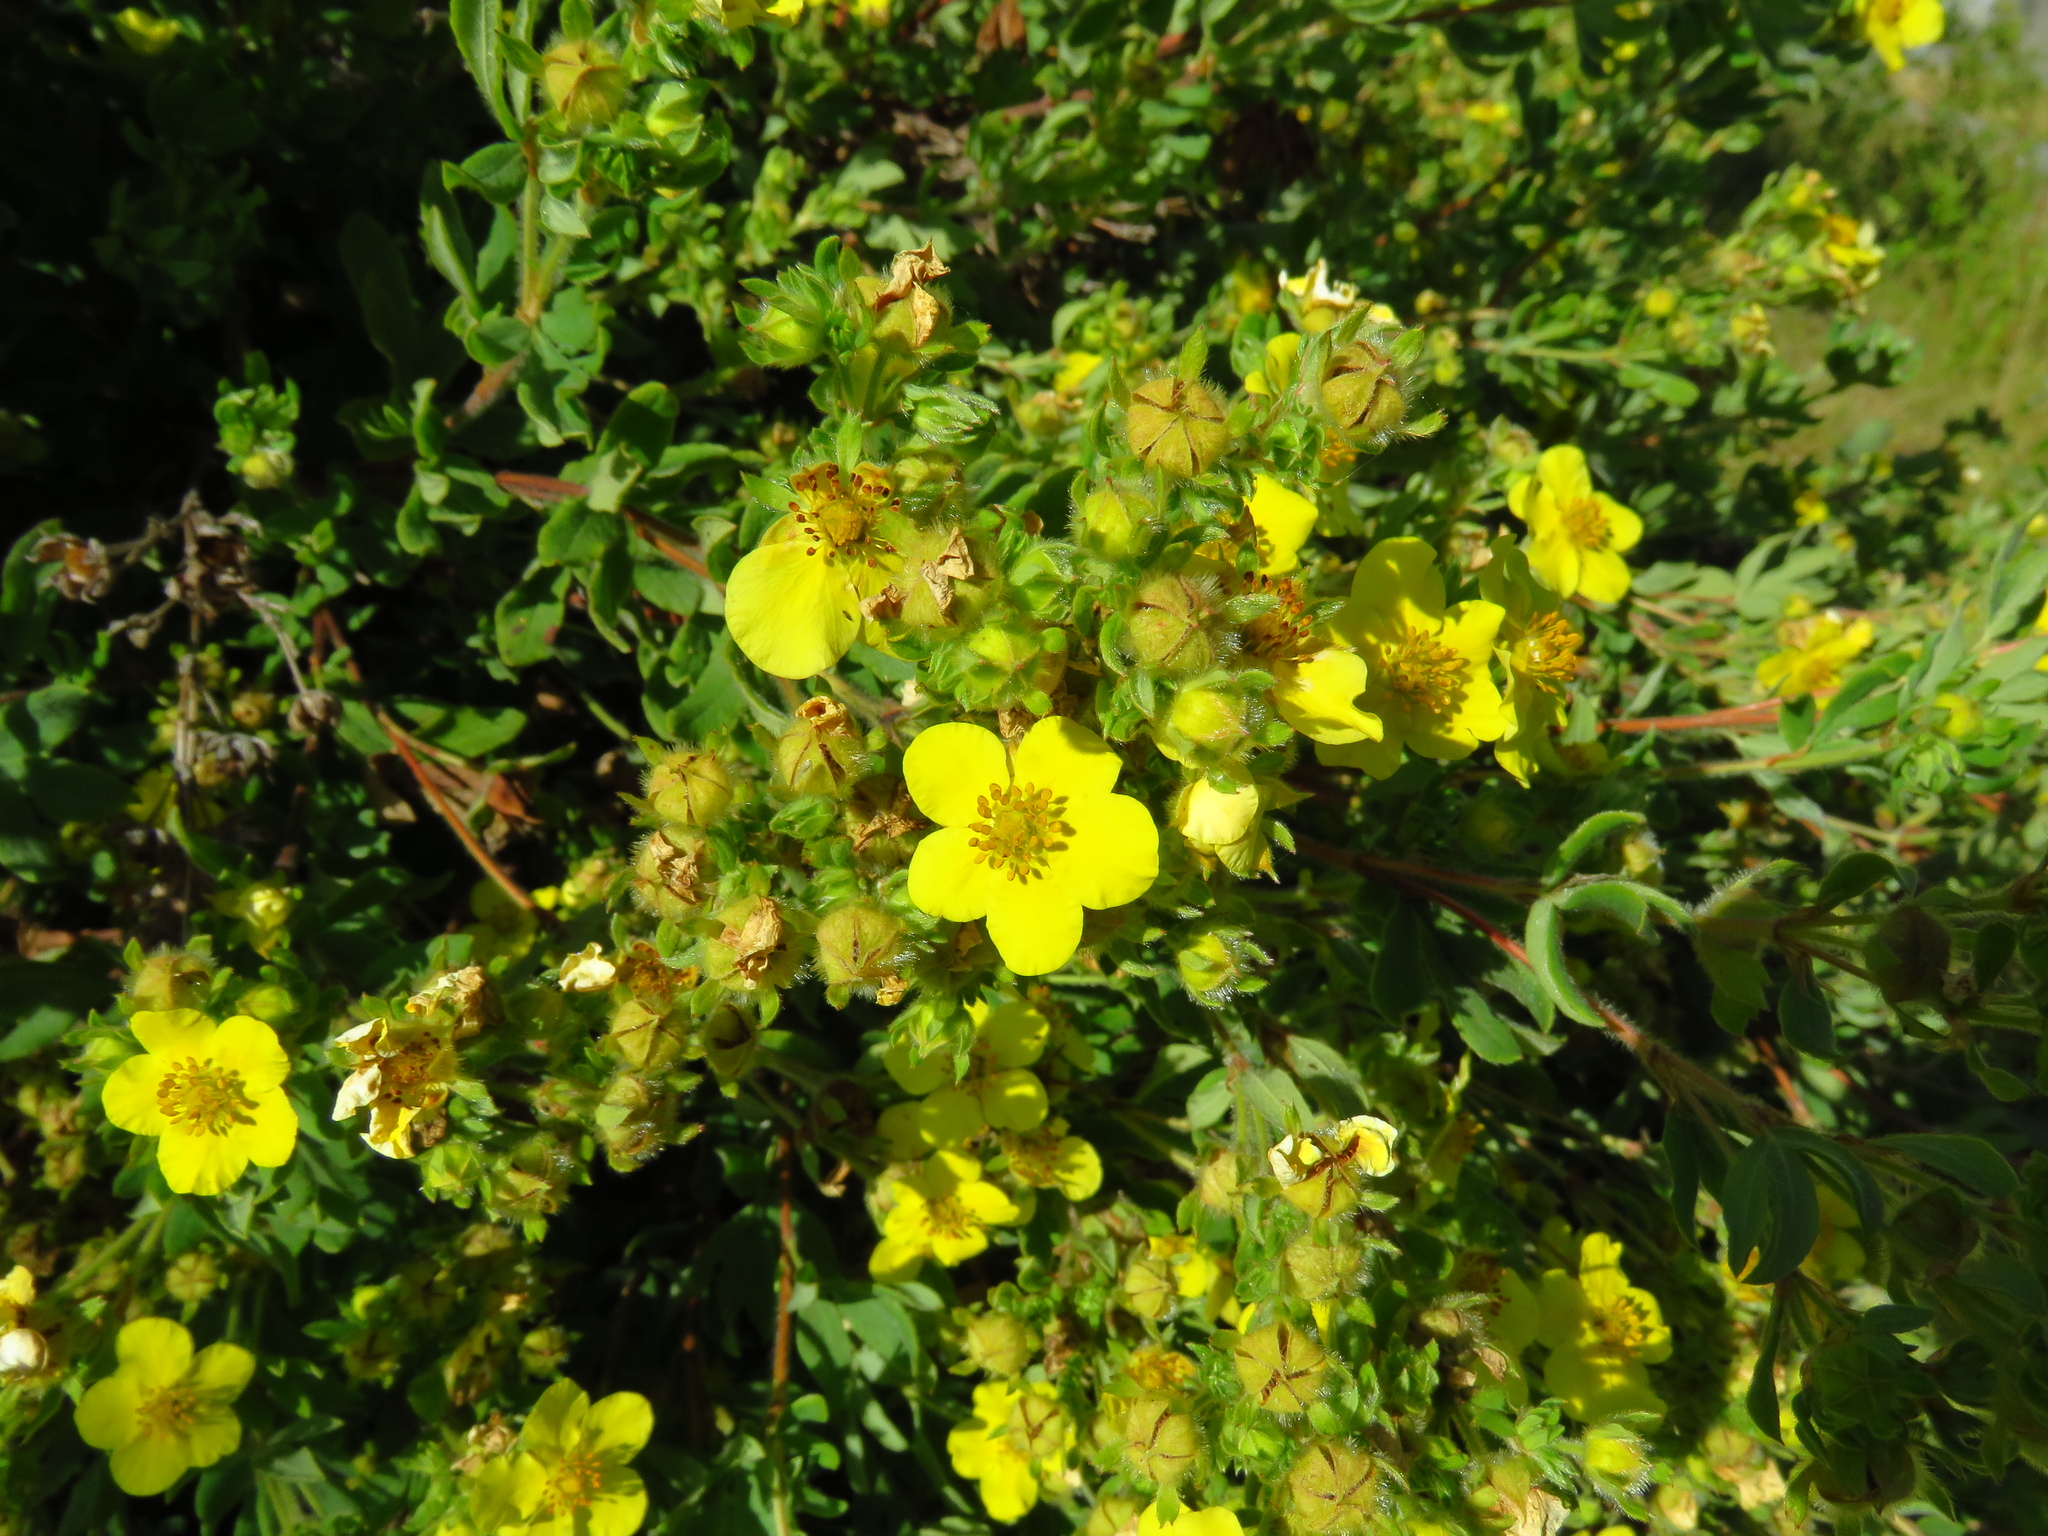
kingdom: Plantae
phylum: Tracheophyta
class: Magnoliopsida
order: Rosales
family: Rosaceae
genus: Dasiphora
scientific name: Dasiphora fruticosa
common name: Shrubby cinquefoil
